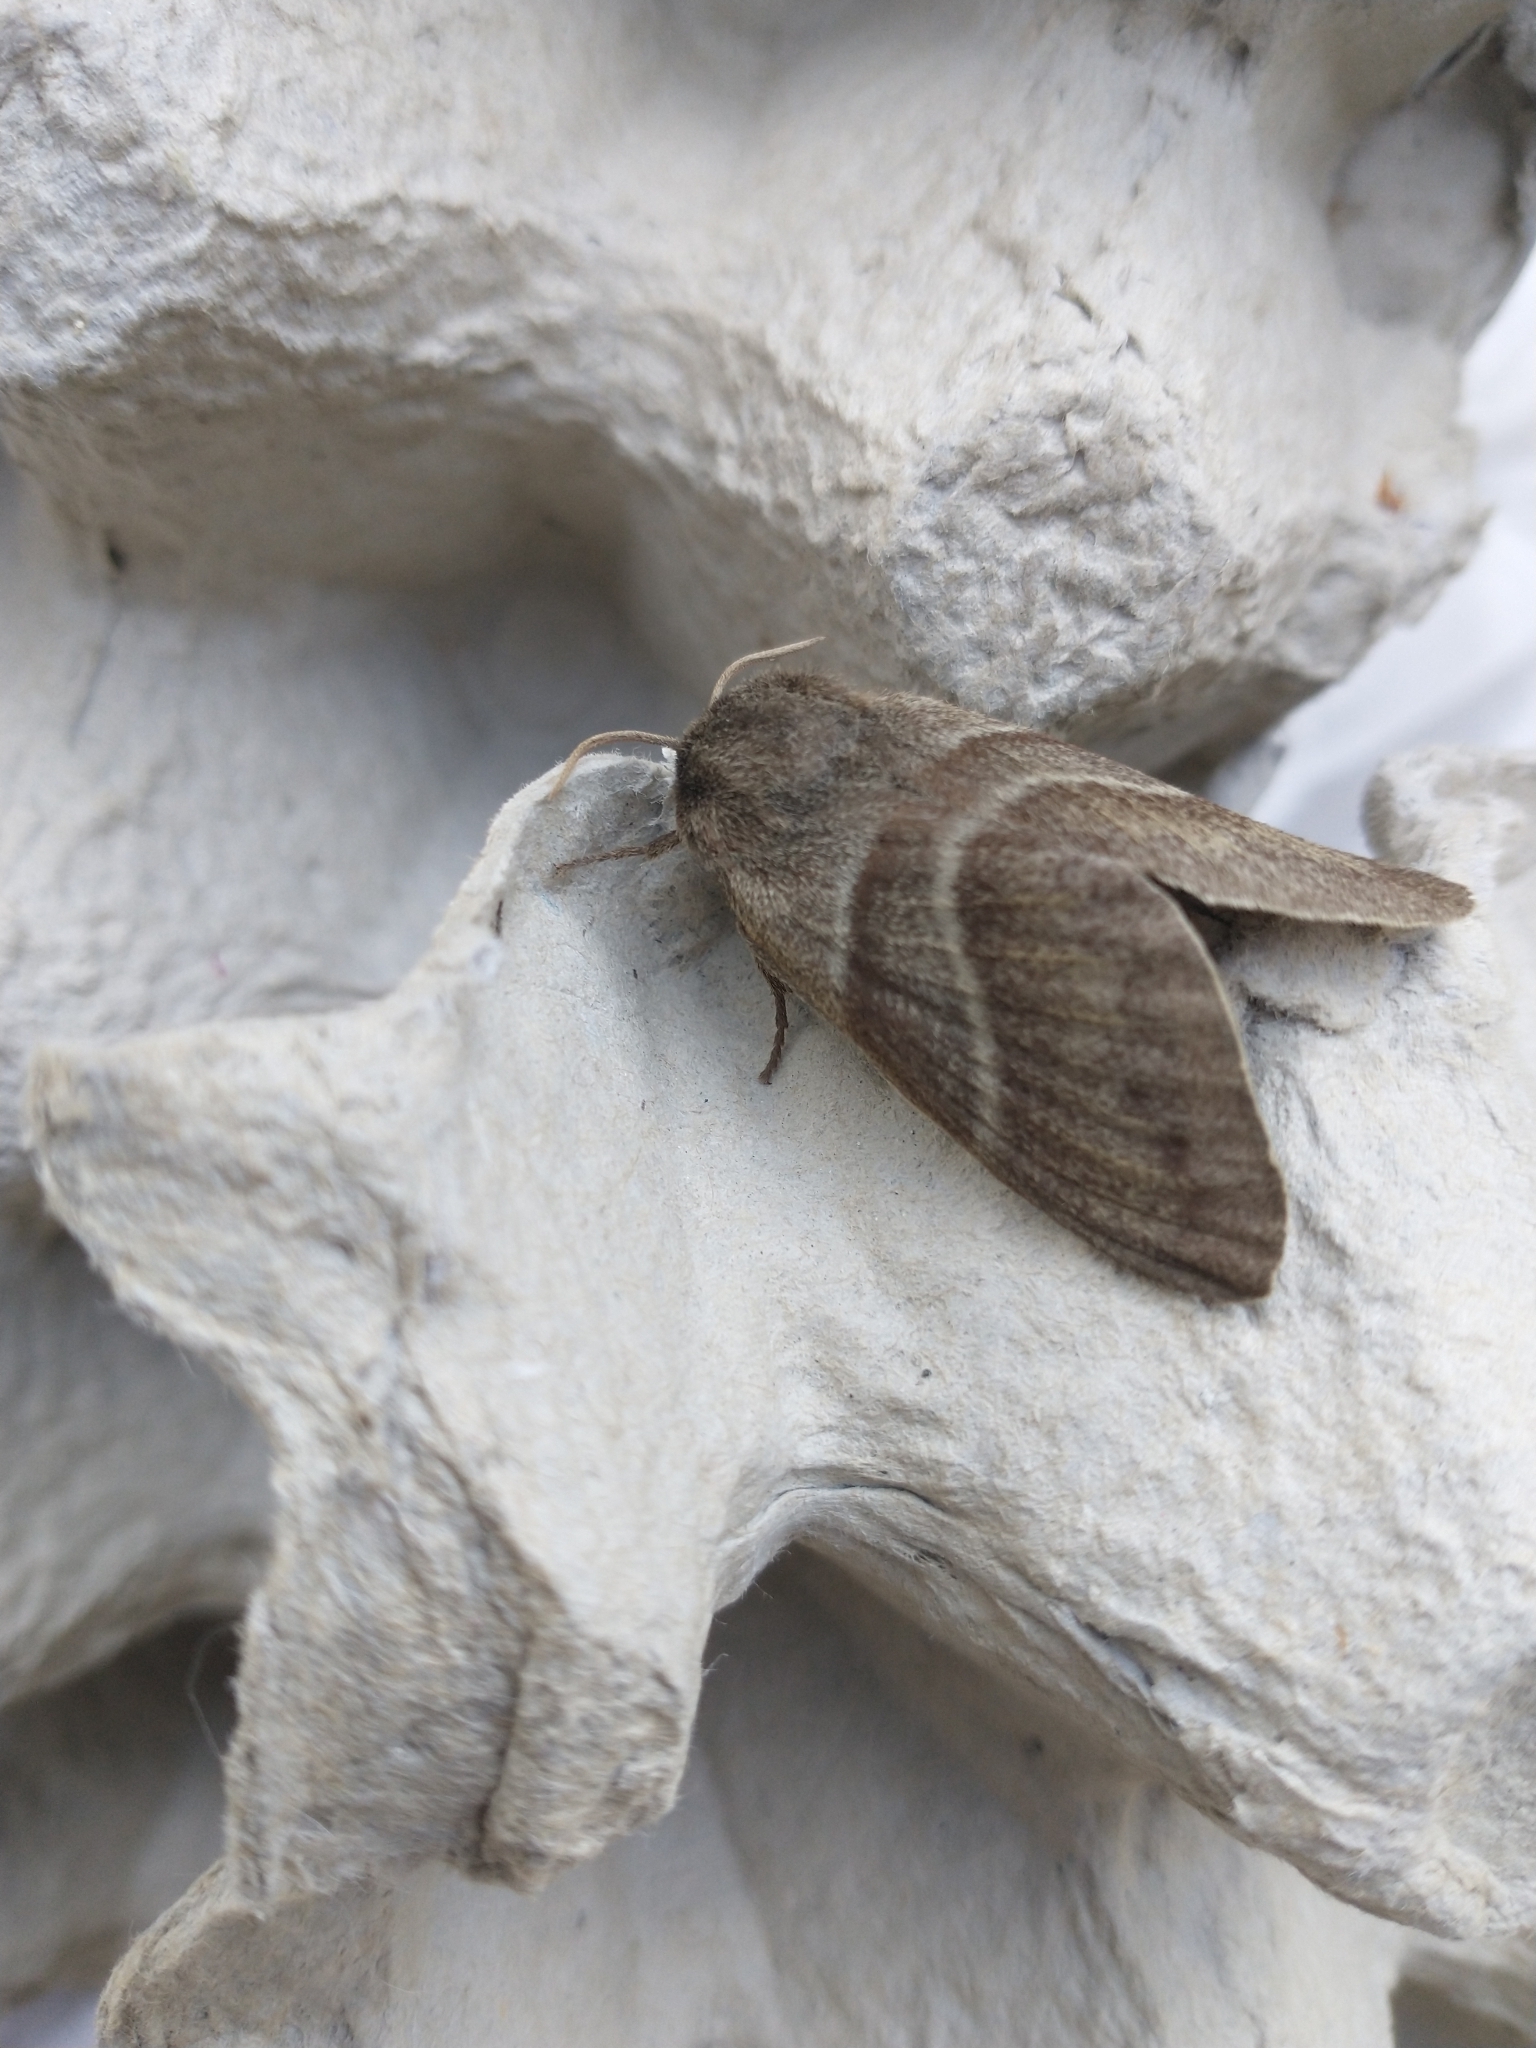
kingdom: Animalia
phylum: Arthropoda
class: Insecta
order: Lepidoptera
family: Lasiocampidae
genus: Macrothylacia
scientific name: Macrothylacia rubi
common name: Fox moth
